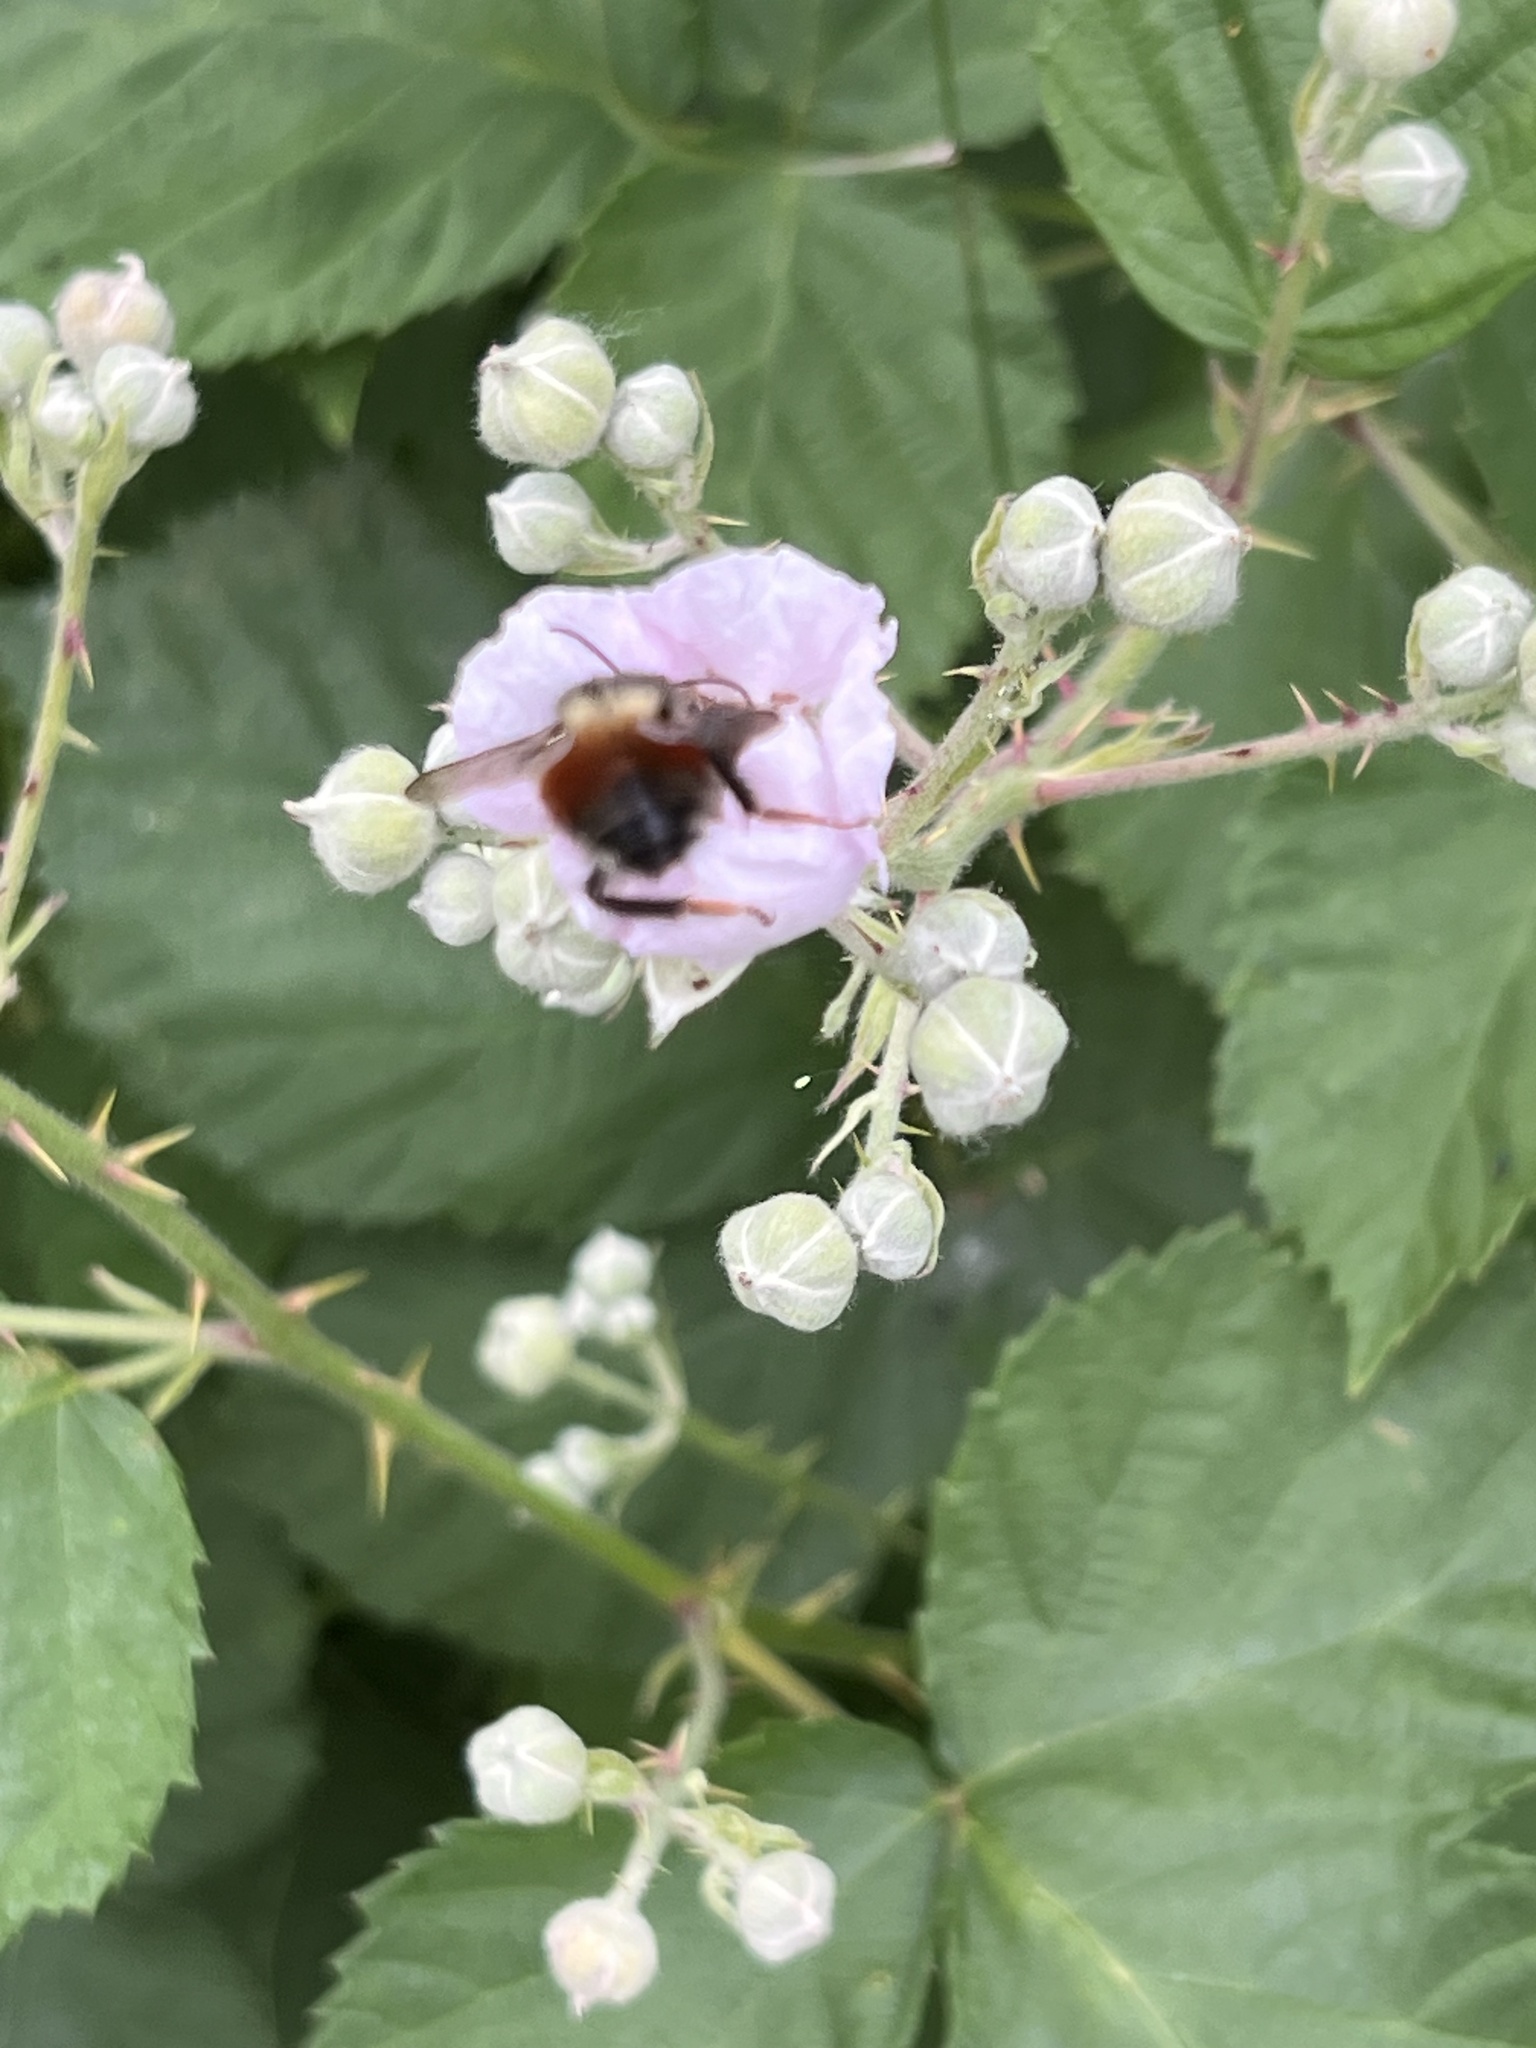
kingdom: Animalia
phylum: Arthropoda
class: Insecta
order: Hymenoptera
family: Apidae
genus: Bombus
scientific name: Bombus melanopygus
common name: Black tail bumble bee
